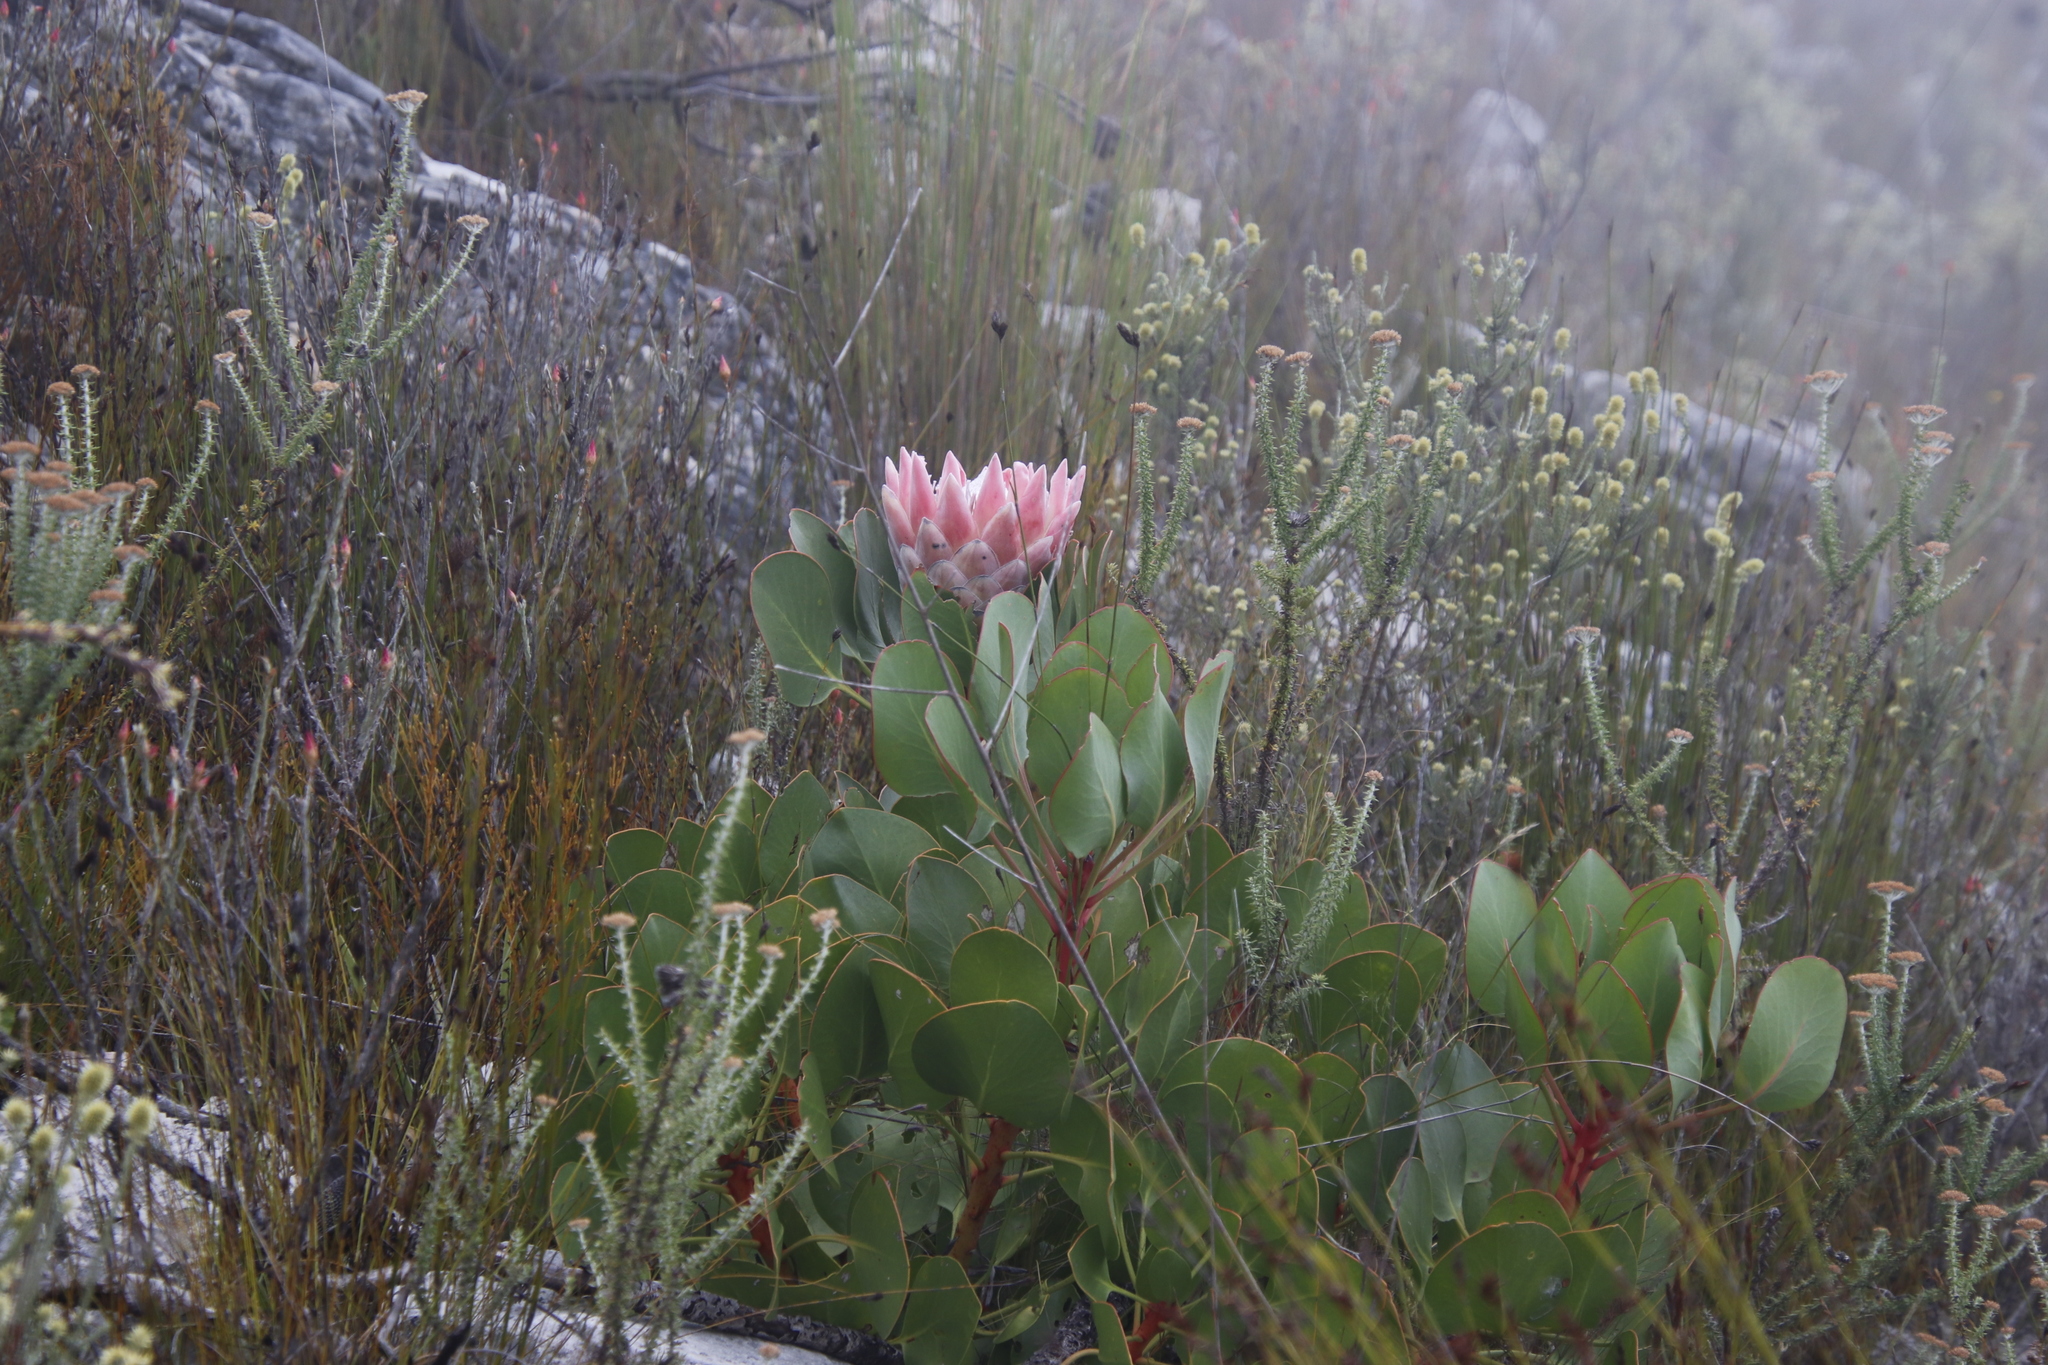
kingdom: Plantae
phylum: Tracheophyta
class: Magnoliopsida
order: Proteales
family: Proteaceae
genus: Protea
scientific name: Protea cynaroides
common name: King protea
